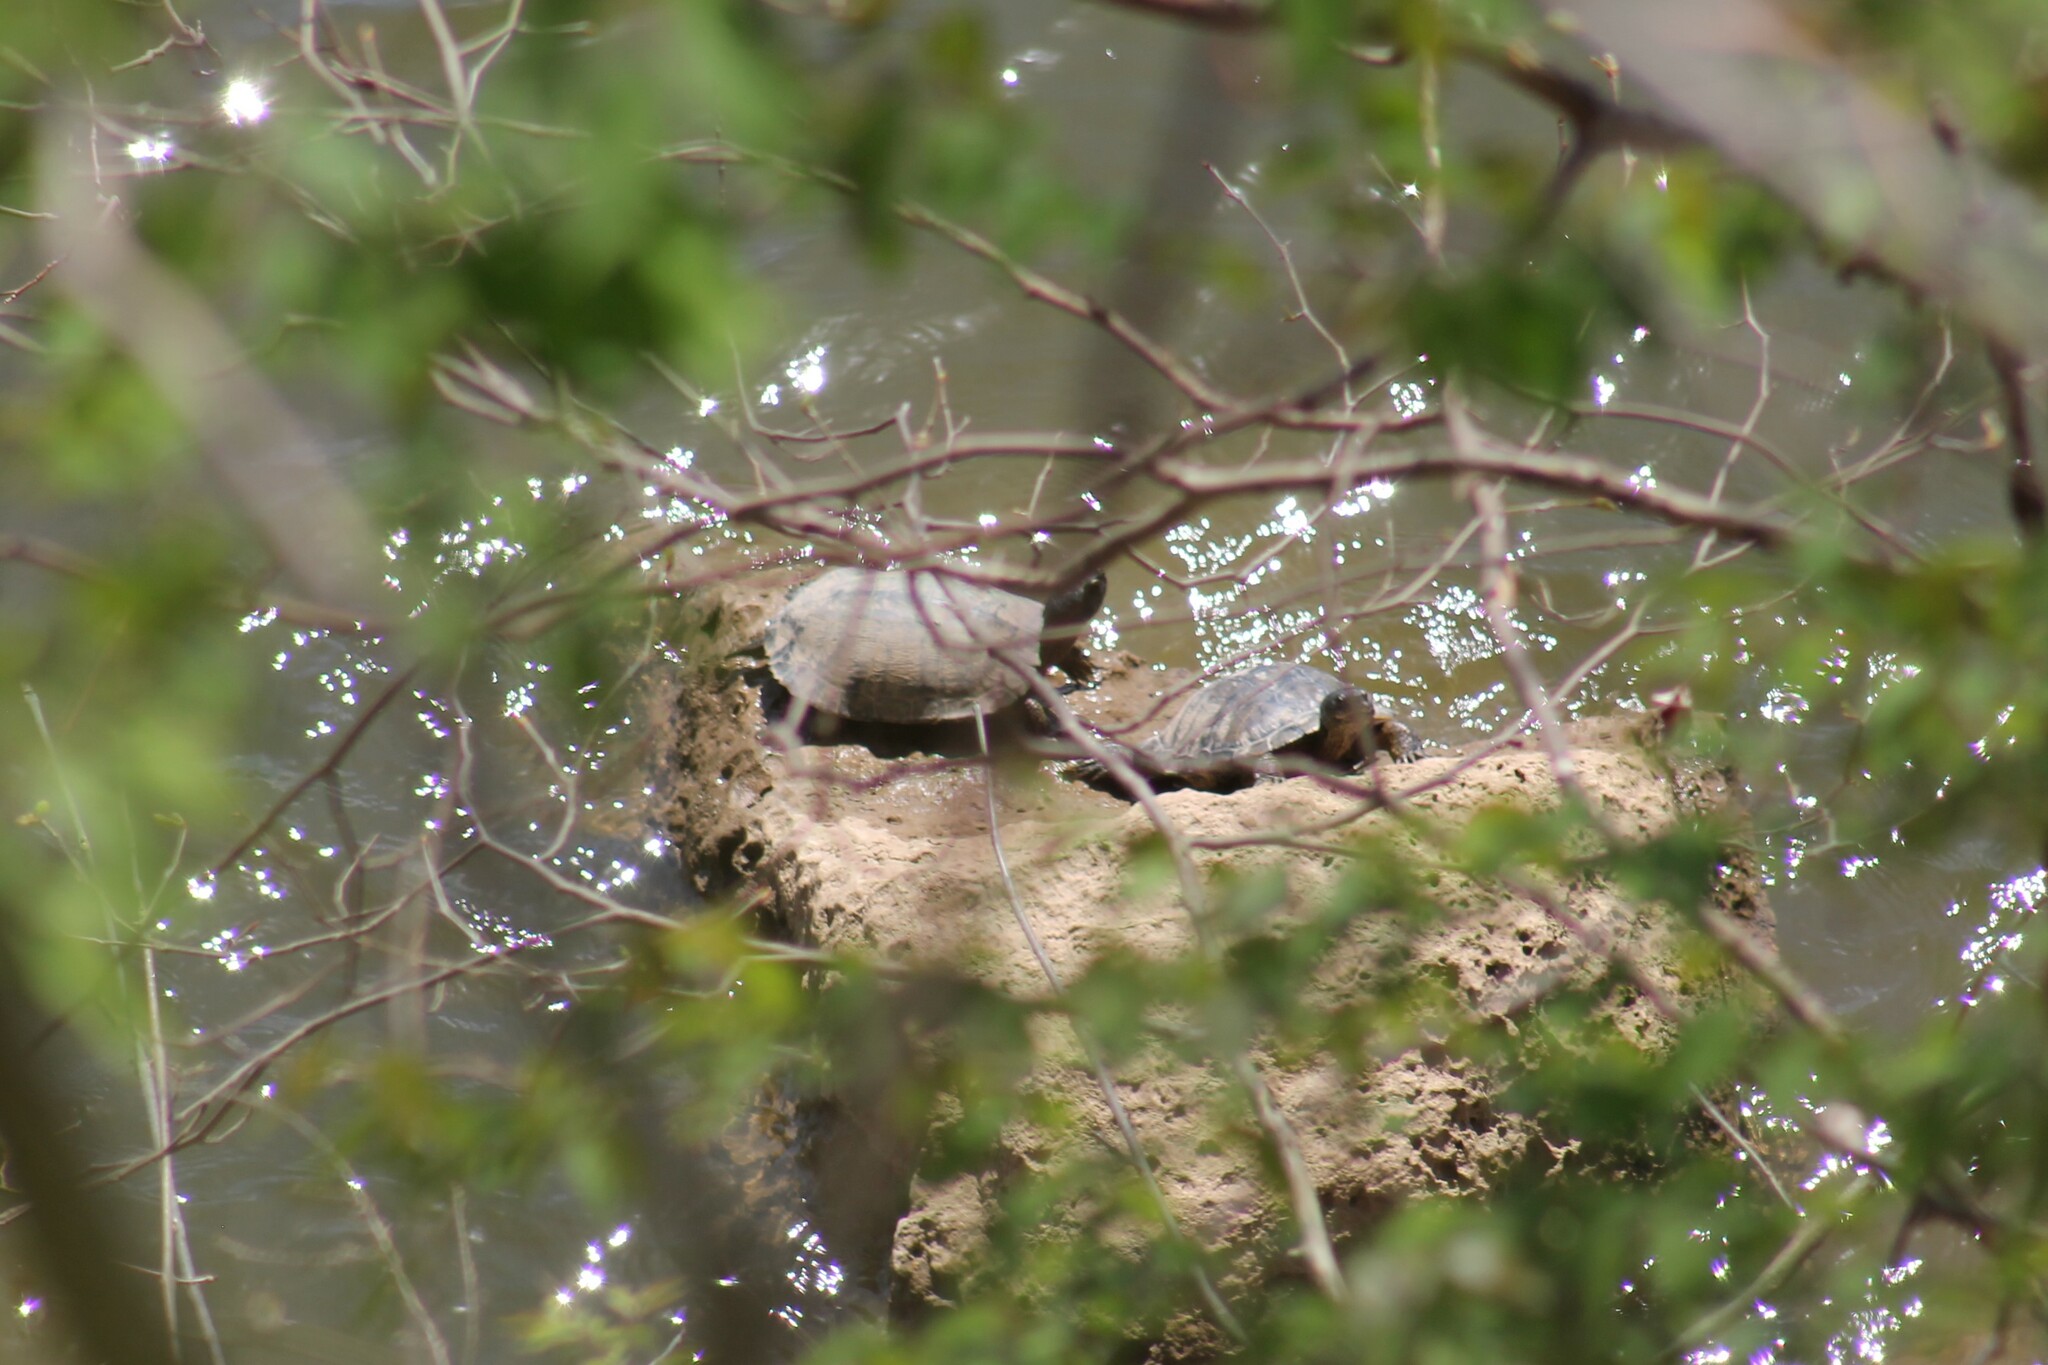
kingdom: Animalia
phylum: Chordata
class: Testudines
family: Emydidae
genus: Trachemys
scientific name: Trachemys scripta
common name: Slider
